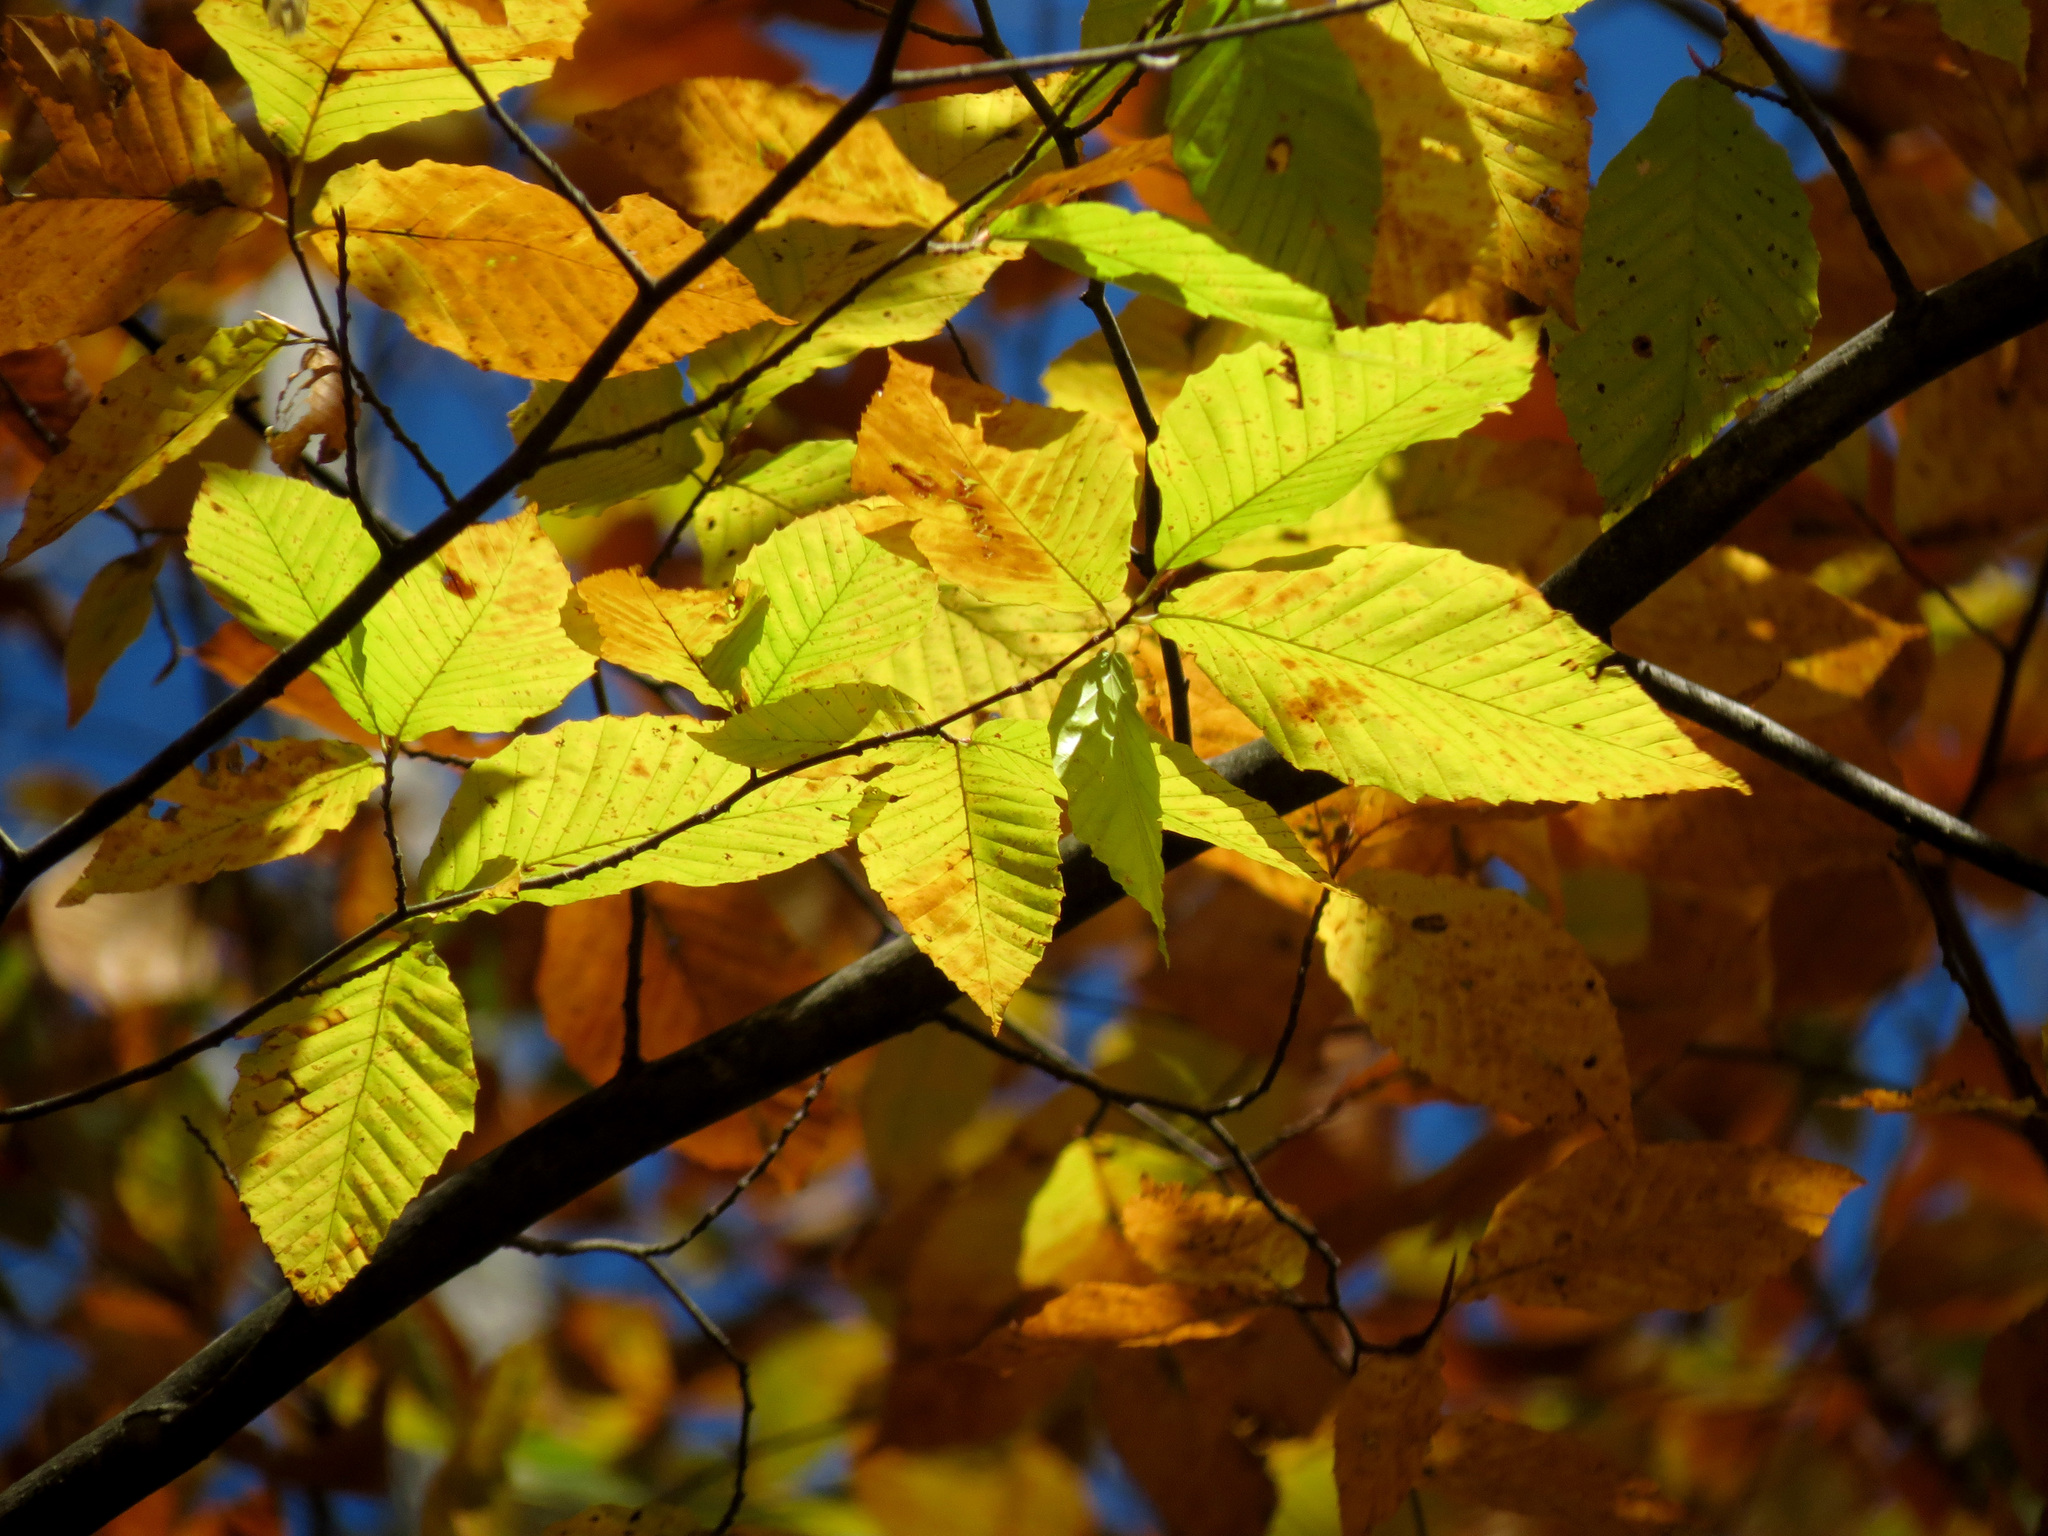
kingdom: Plantae
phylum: Tracheophyta
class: Magnoliopsida
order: Fagales
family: Fagaceae
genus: Fagus
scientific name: Fagus grandifolia
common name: American beech
